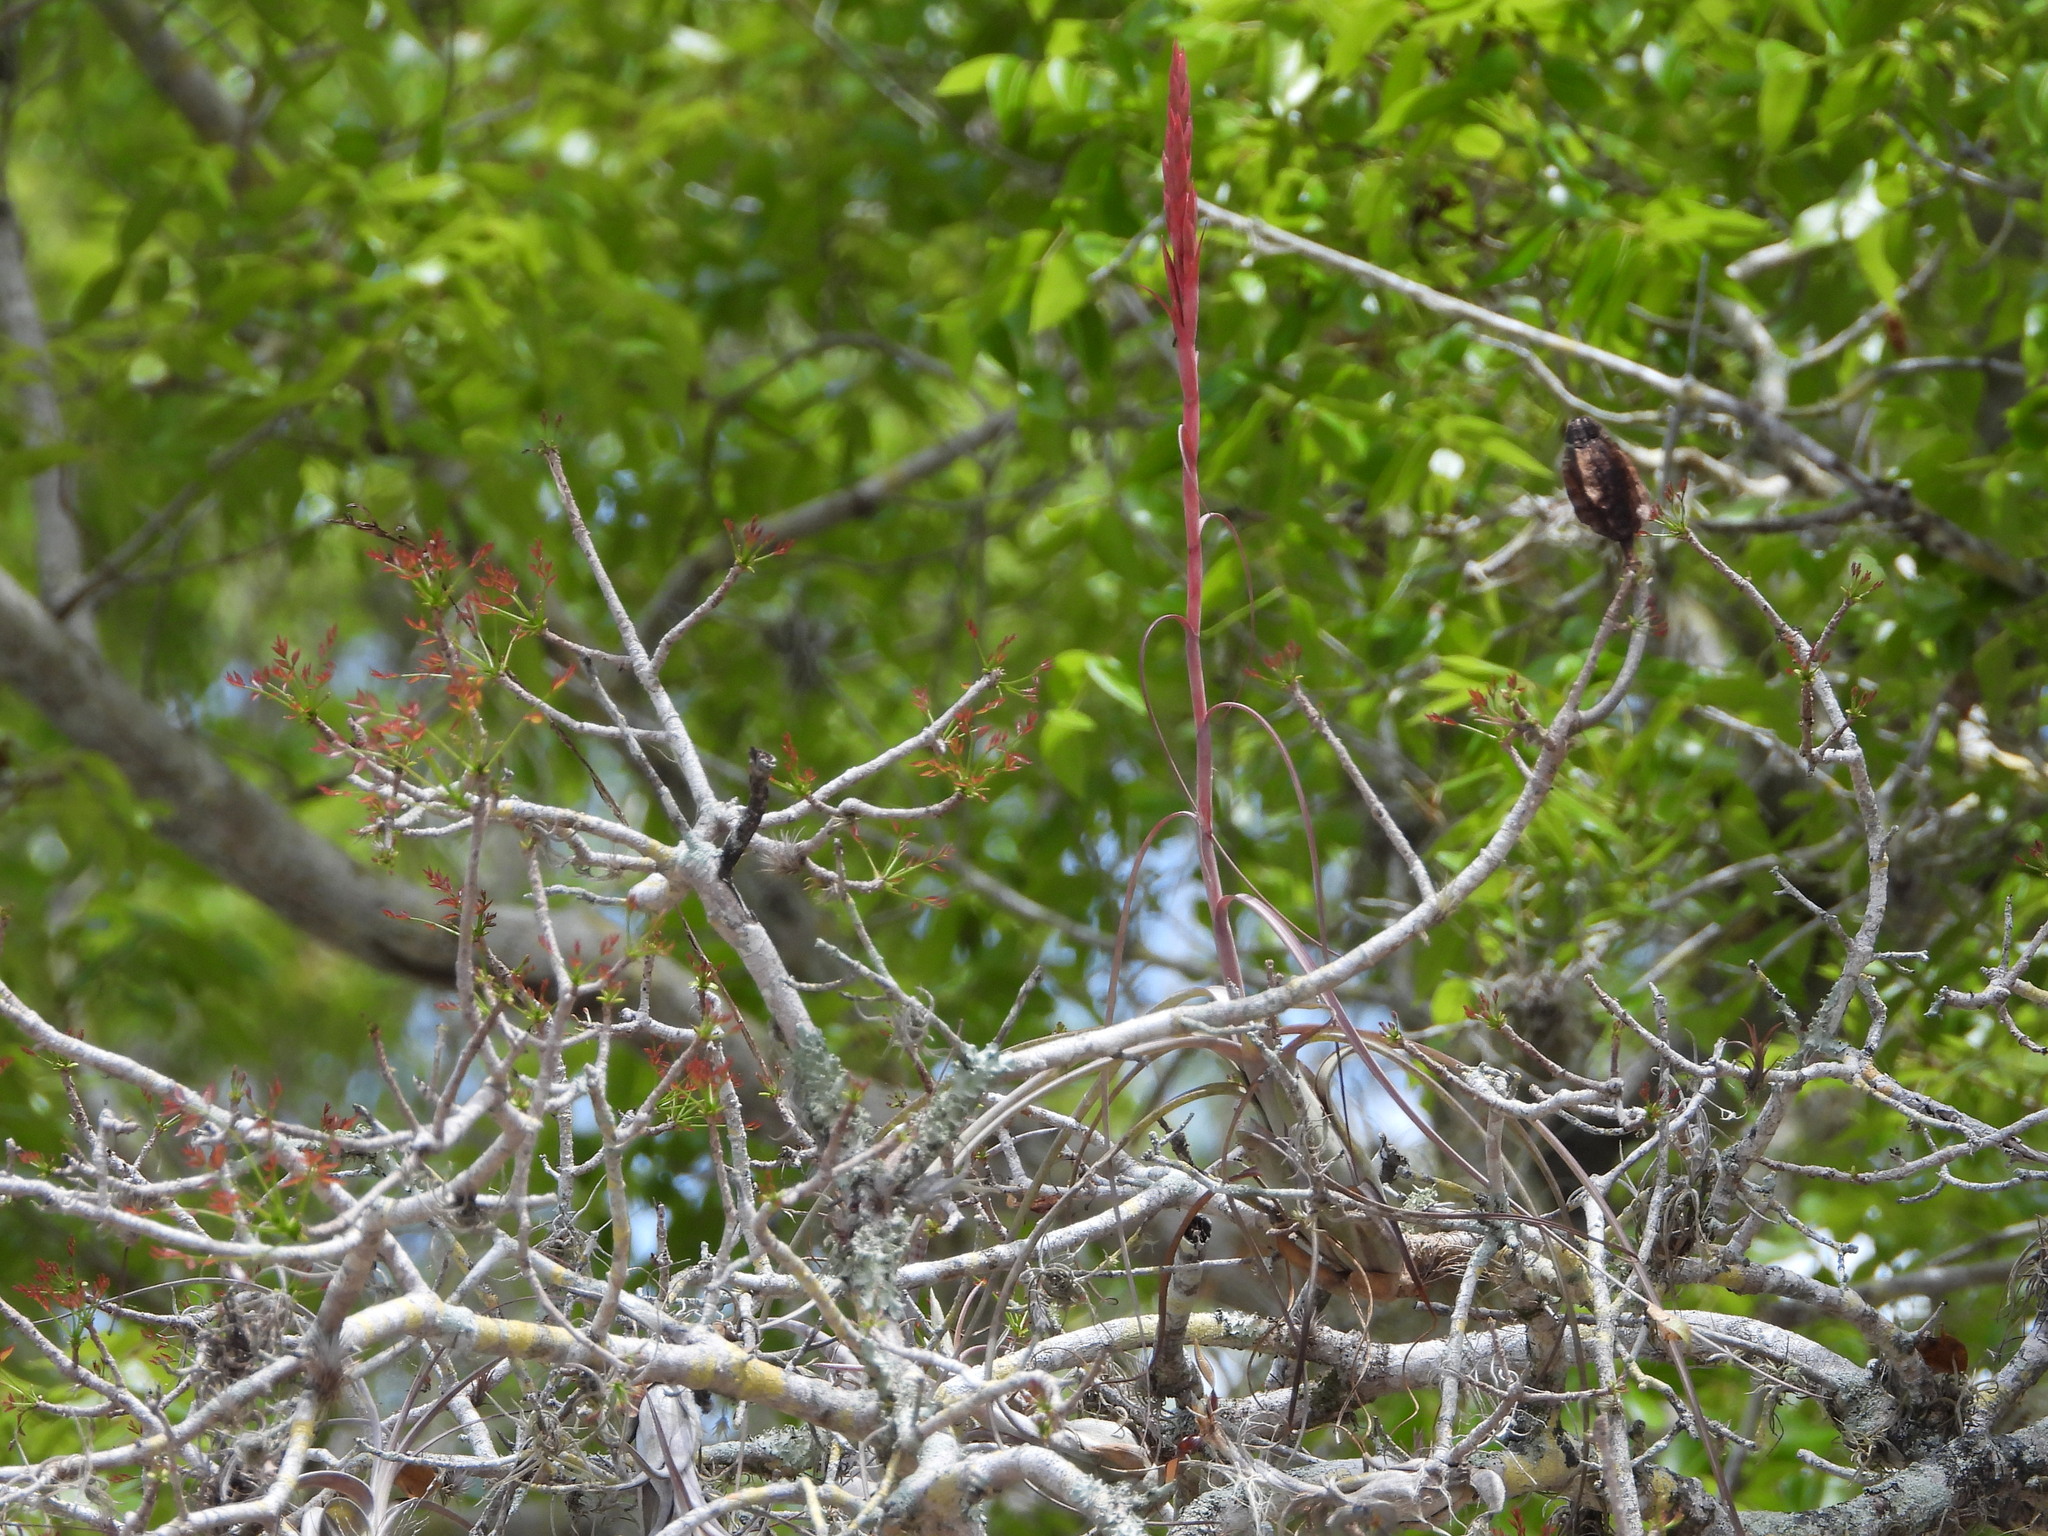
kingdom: Plantae
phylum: Tracheophyta
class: Liliopsida
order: Poales
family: Bromeliaceae
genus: Tillandsia
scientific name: Tillandsia balbisiana
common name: Northern needleleaf
